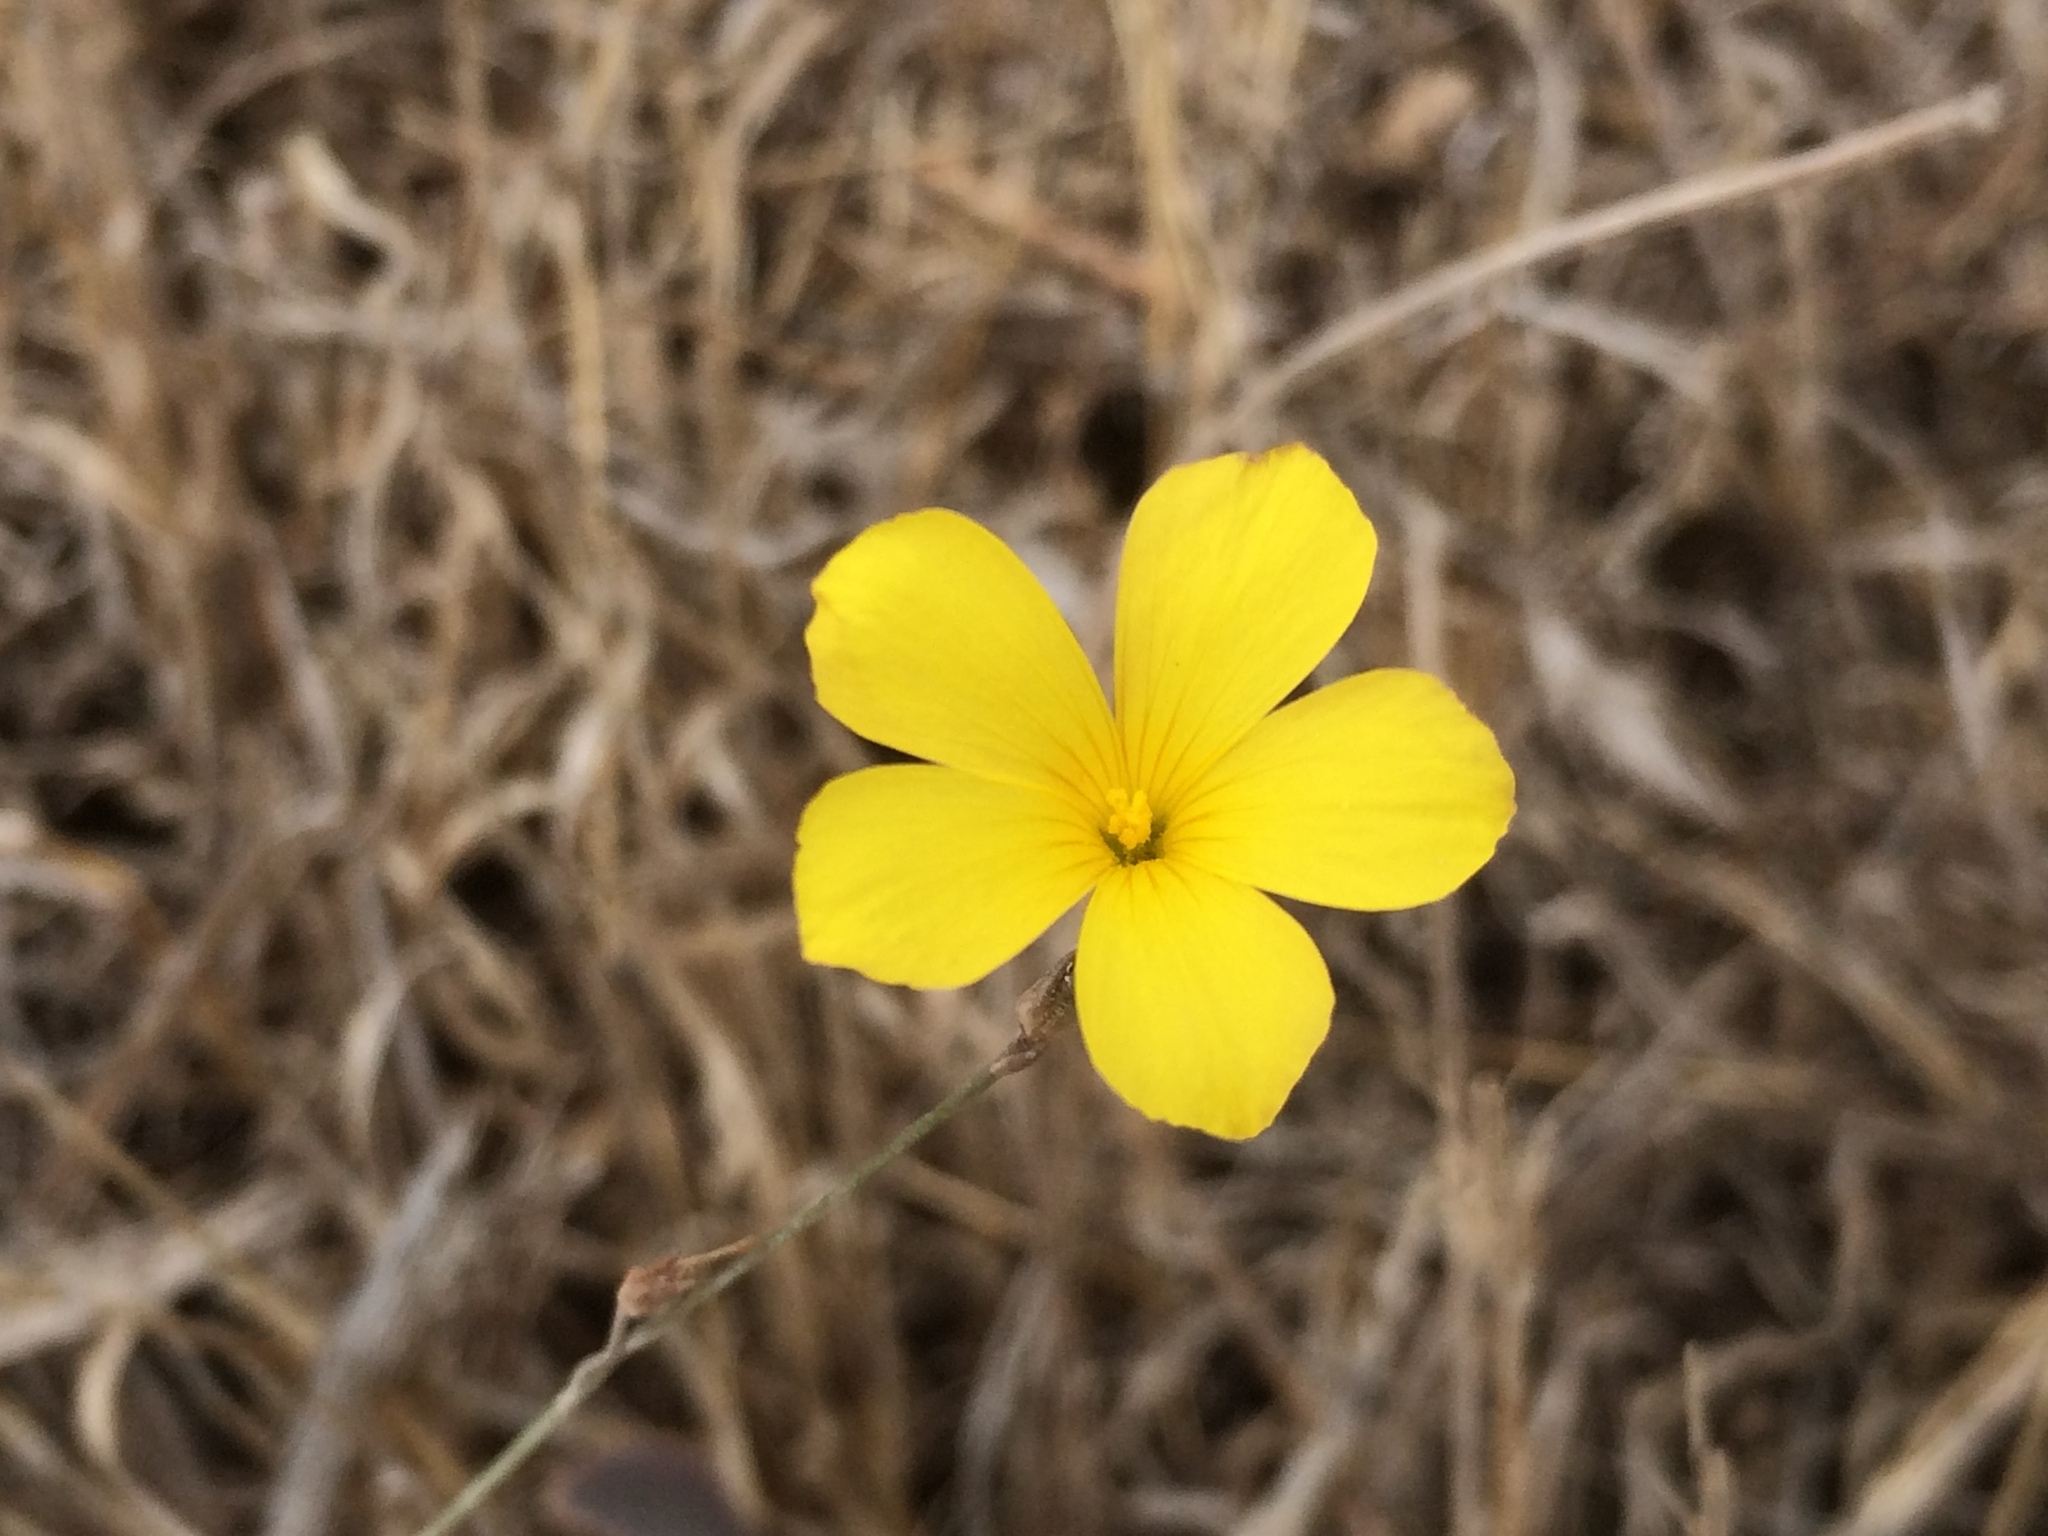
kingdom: Plantae
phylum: Tracheophyta
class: Magnoliopsida
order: Malpighiales
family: Linaceae
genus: Linum
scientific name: Linum tenue
